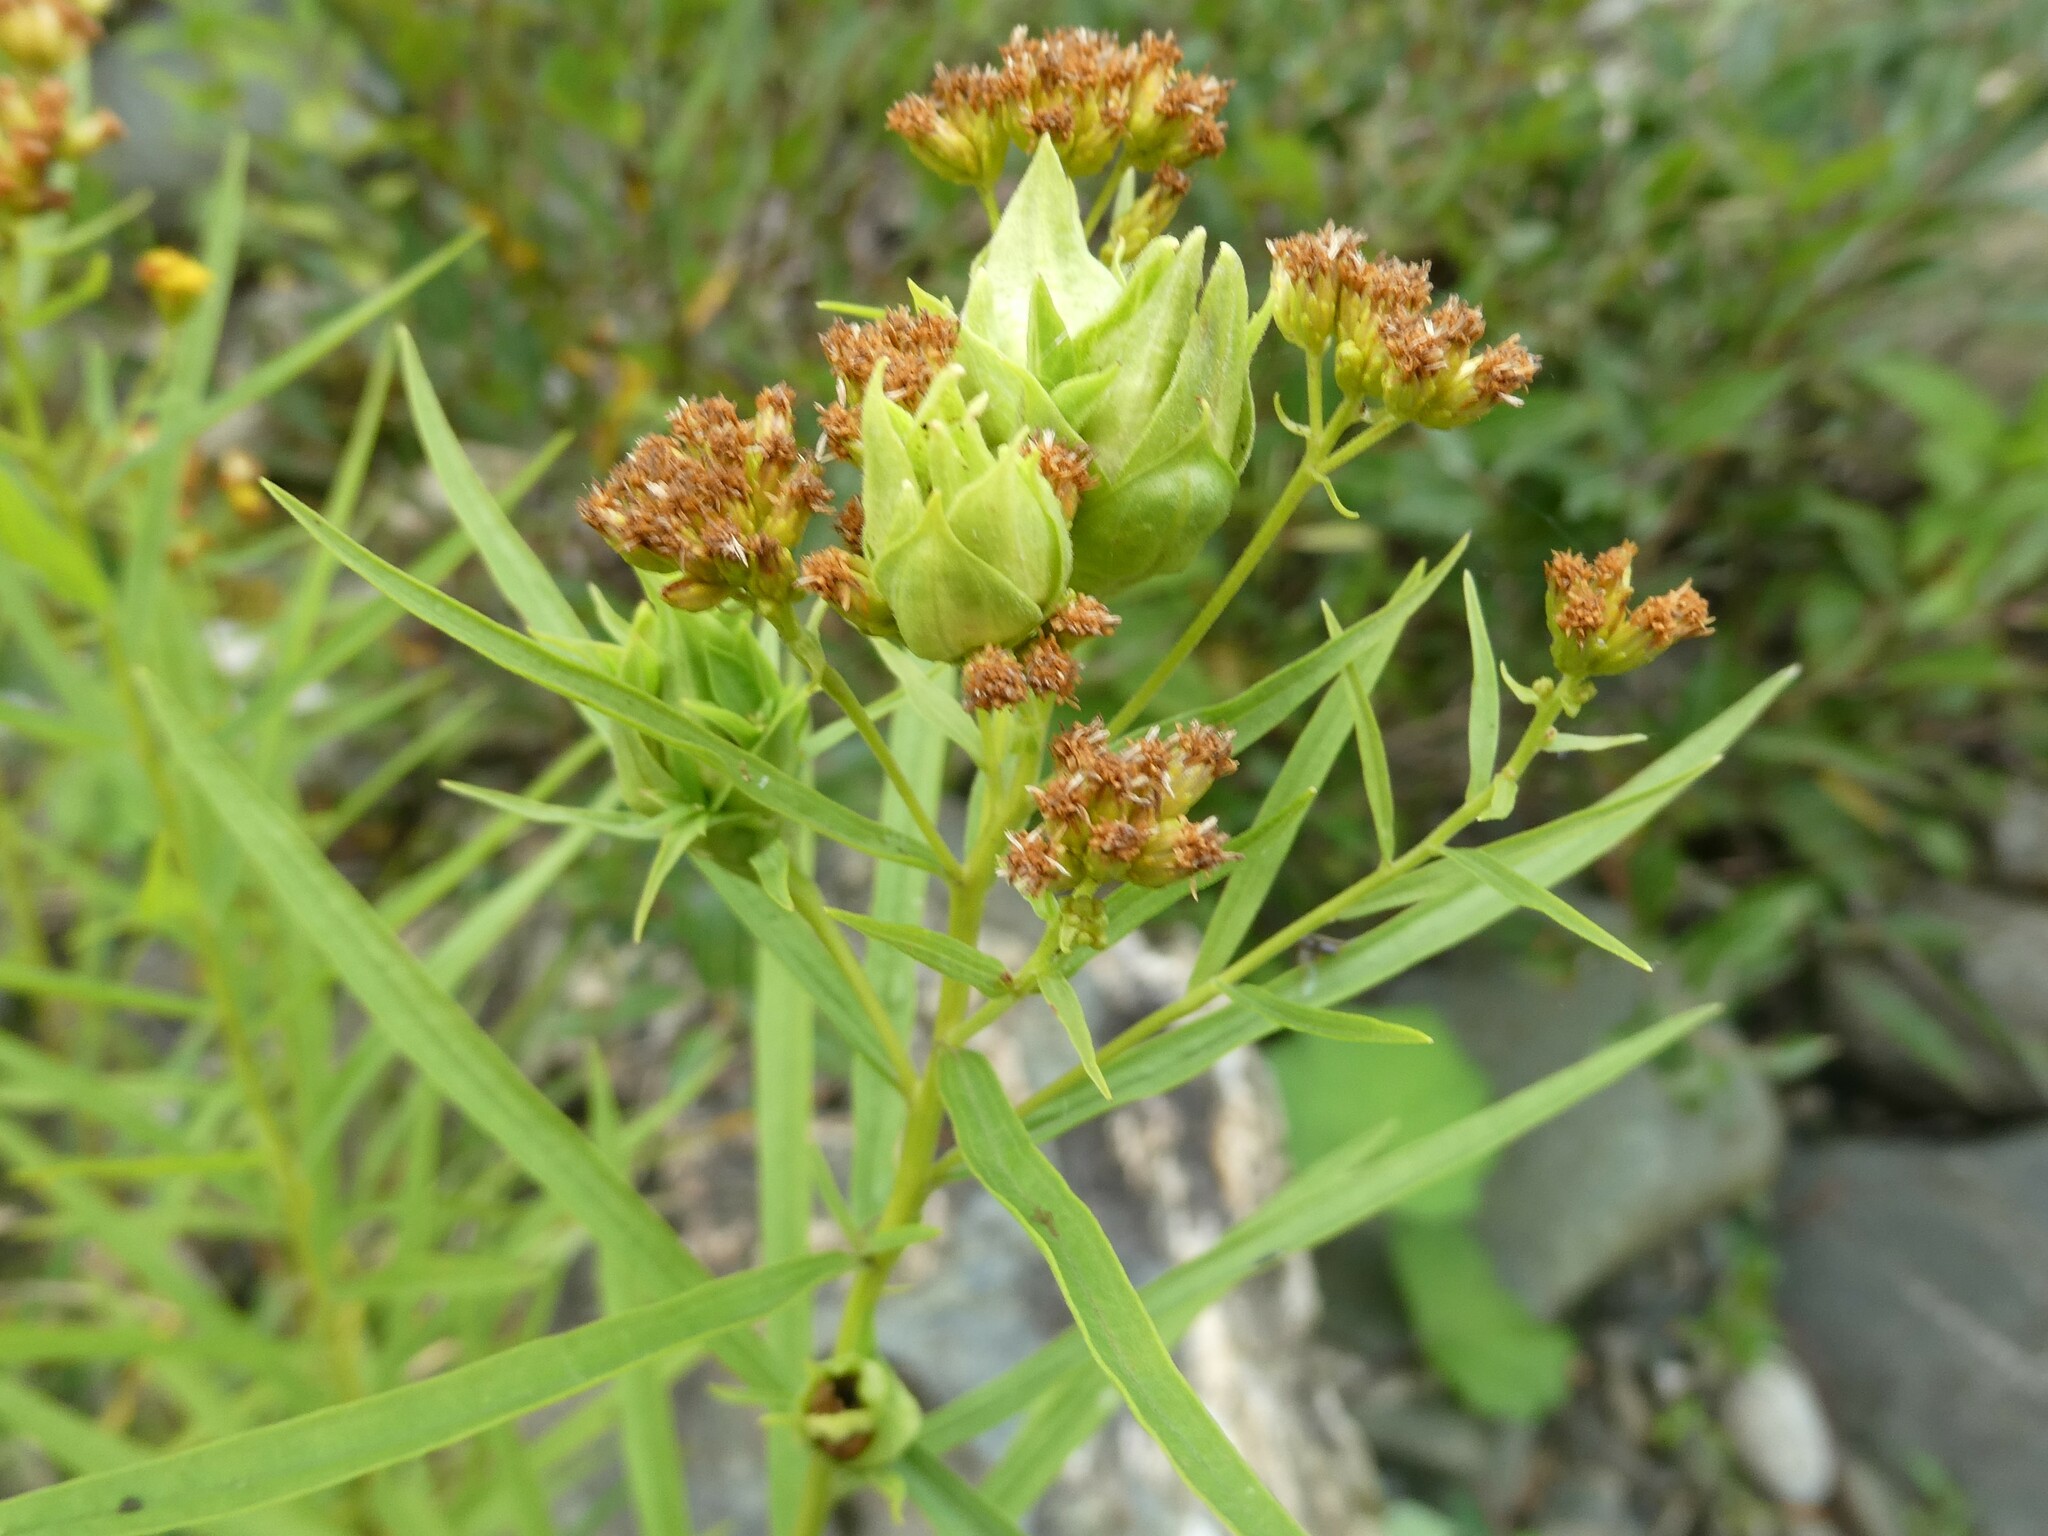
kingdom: Animalia
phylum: Arthropoda
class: Insecta
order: Diptera
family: Cecidomyiidae
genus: Rhopalomyia
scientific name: Rhopalomyia lobata
